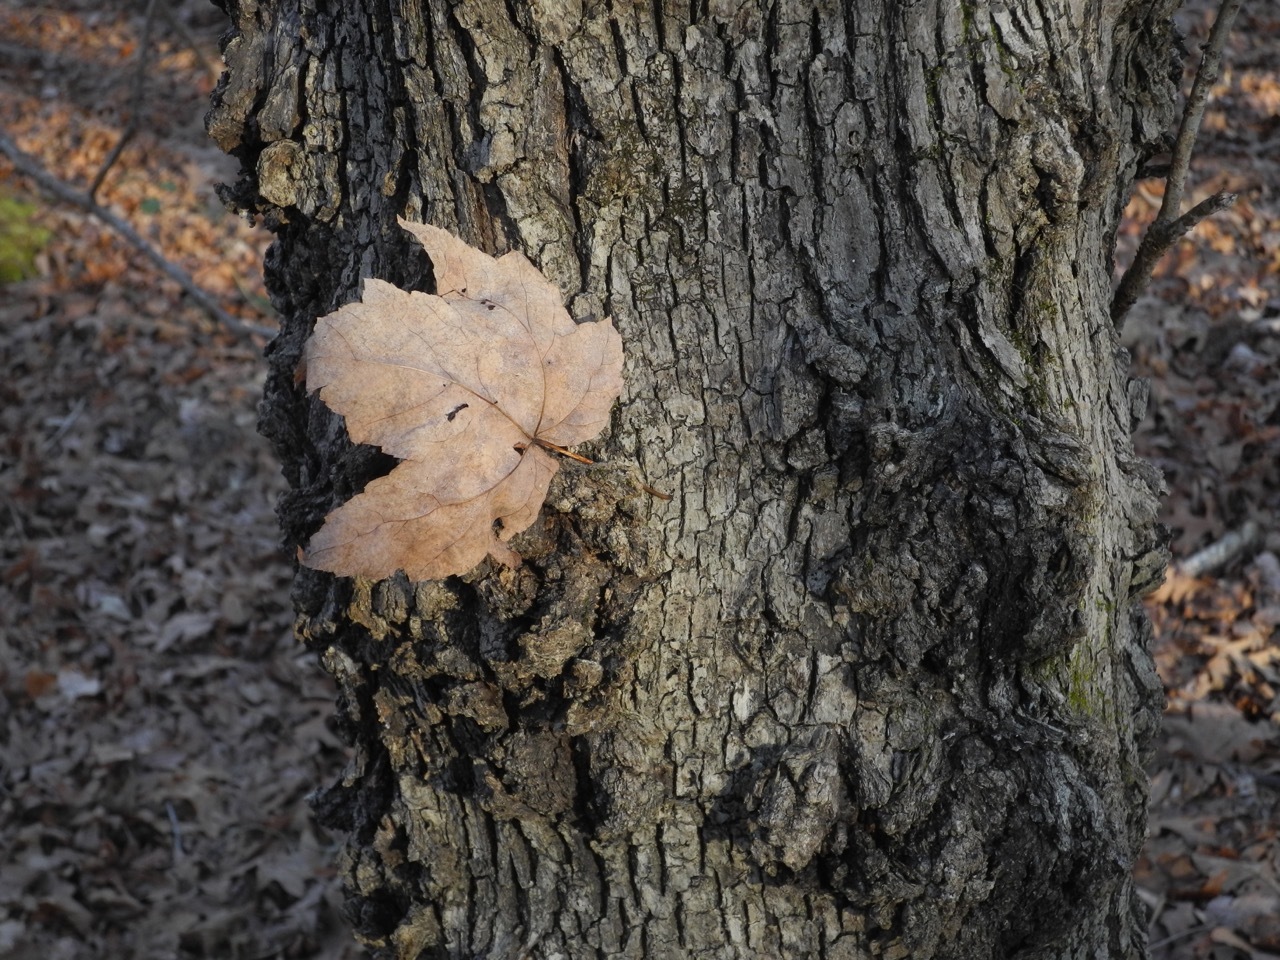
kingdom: Plantae
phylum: Tracheophyta
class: Magnoliopsida
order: Sapindales
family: Sapindaceae
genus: Acer
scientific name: Acer freemanii
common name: Freeman maple
